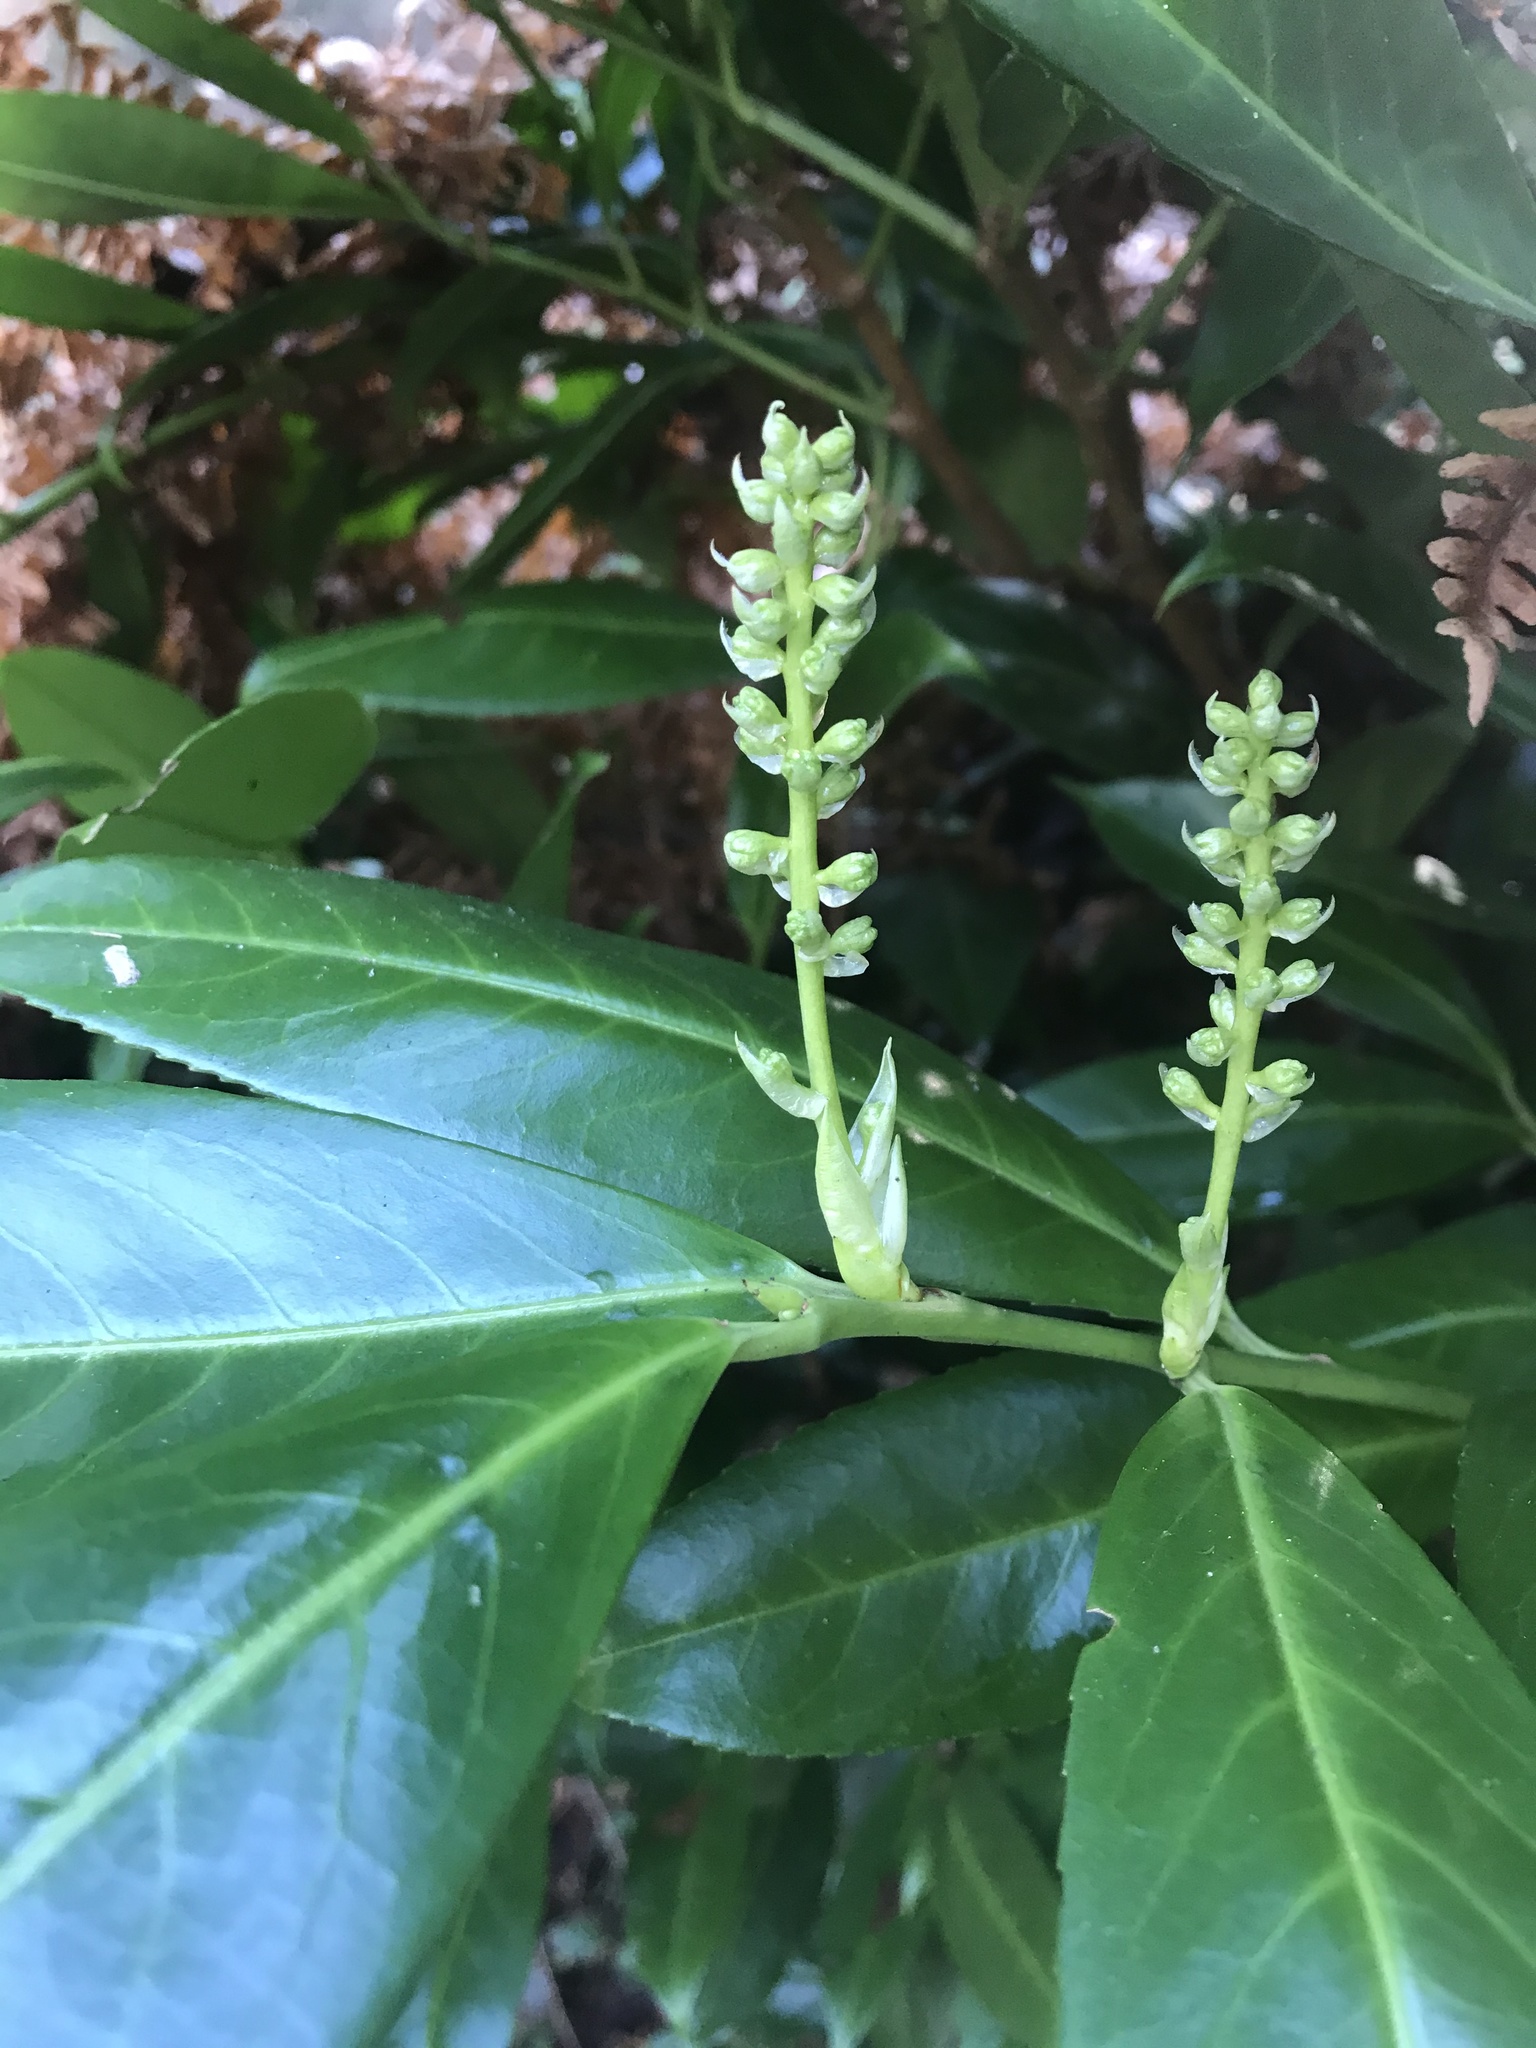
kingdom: Plantae
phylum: Tracheophyta
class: Magnoliopsida
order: Rosales
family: Rosaceae
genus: Prunus
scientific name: Prunus laurocerasus
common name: Cherry laurel
